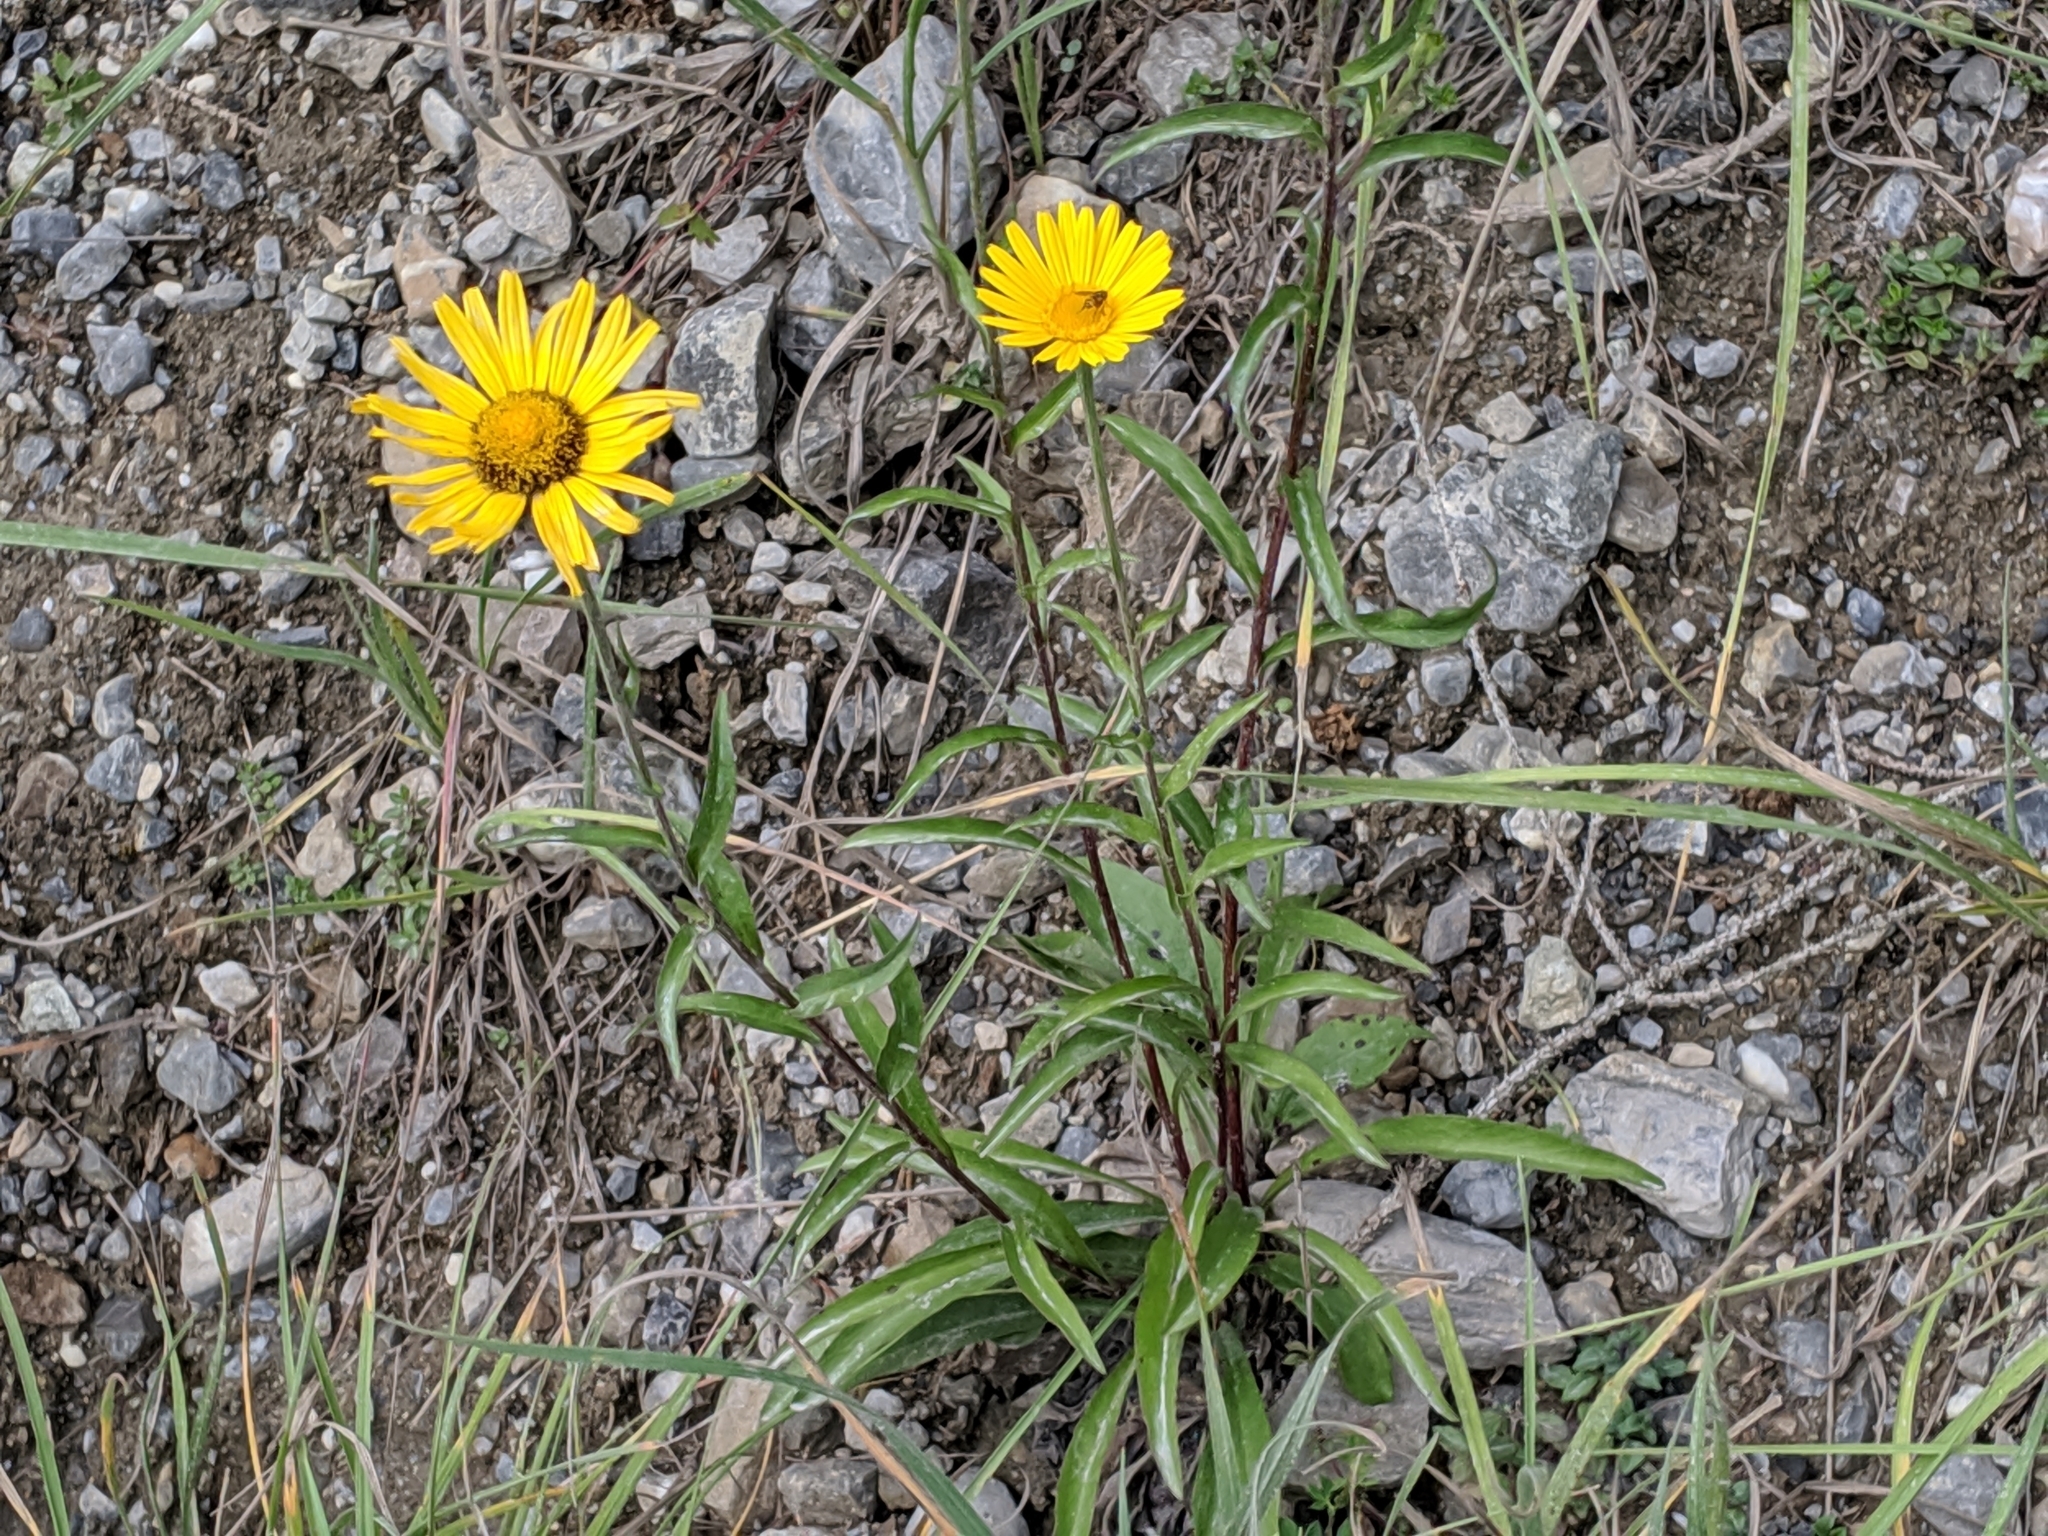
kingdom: Plantae
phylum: Tracheophyta
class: Magnoliopsida
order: Asterales
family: Asteraceae
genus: Buphthalmum
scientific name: Buphthalmum salicifolium
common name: Willow-leaved yellow-oxeye
